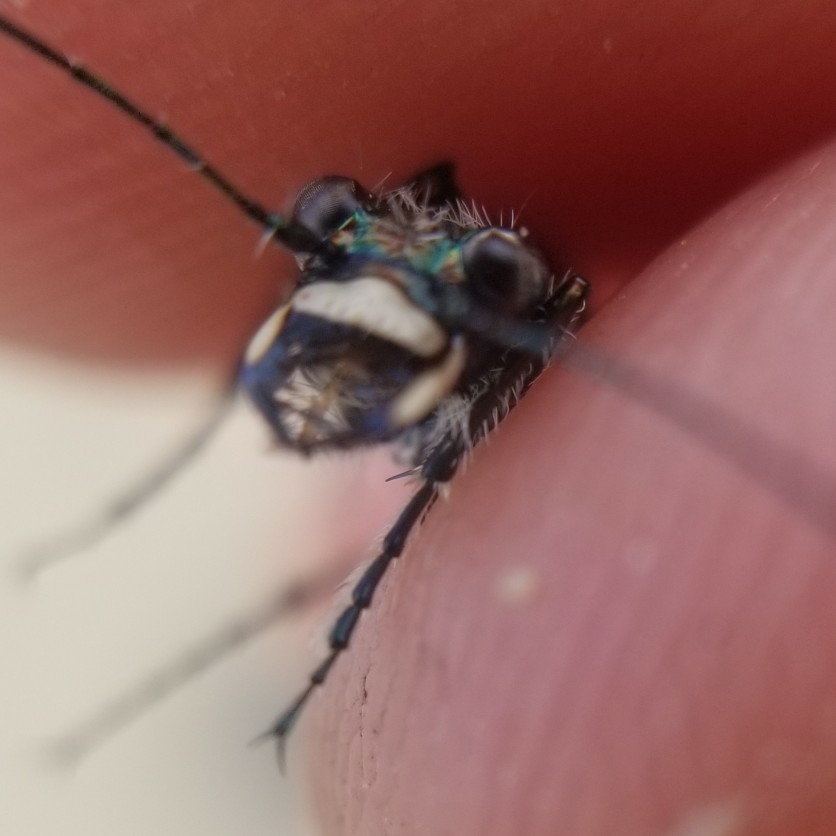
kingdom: Animalia
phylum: Arthropoda
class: Insecta
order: Coleoptera
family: Carabidae
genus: Cicindela
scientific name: Cicindela repanda
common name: Bronzed tiger beetle
